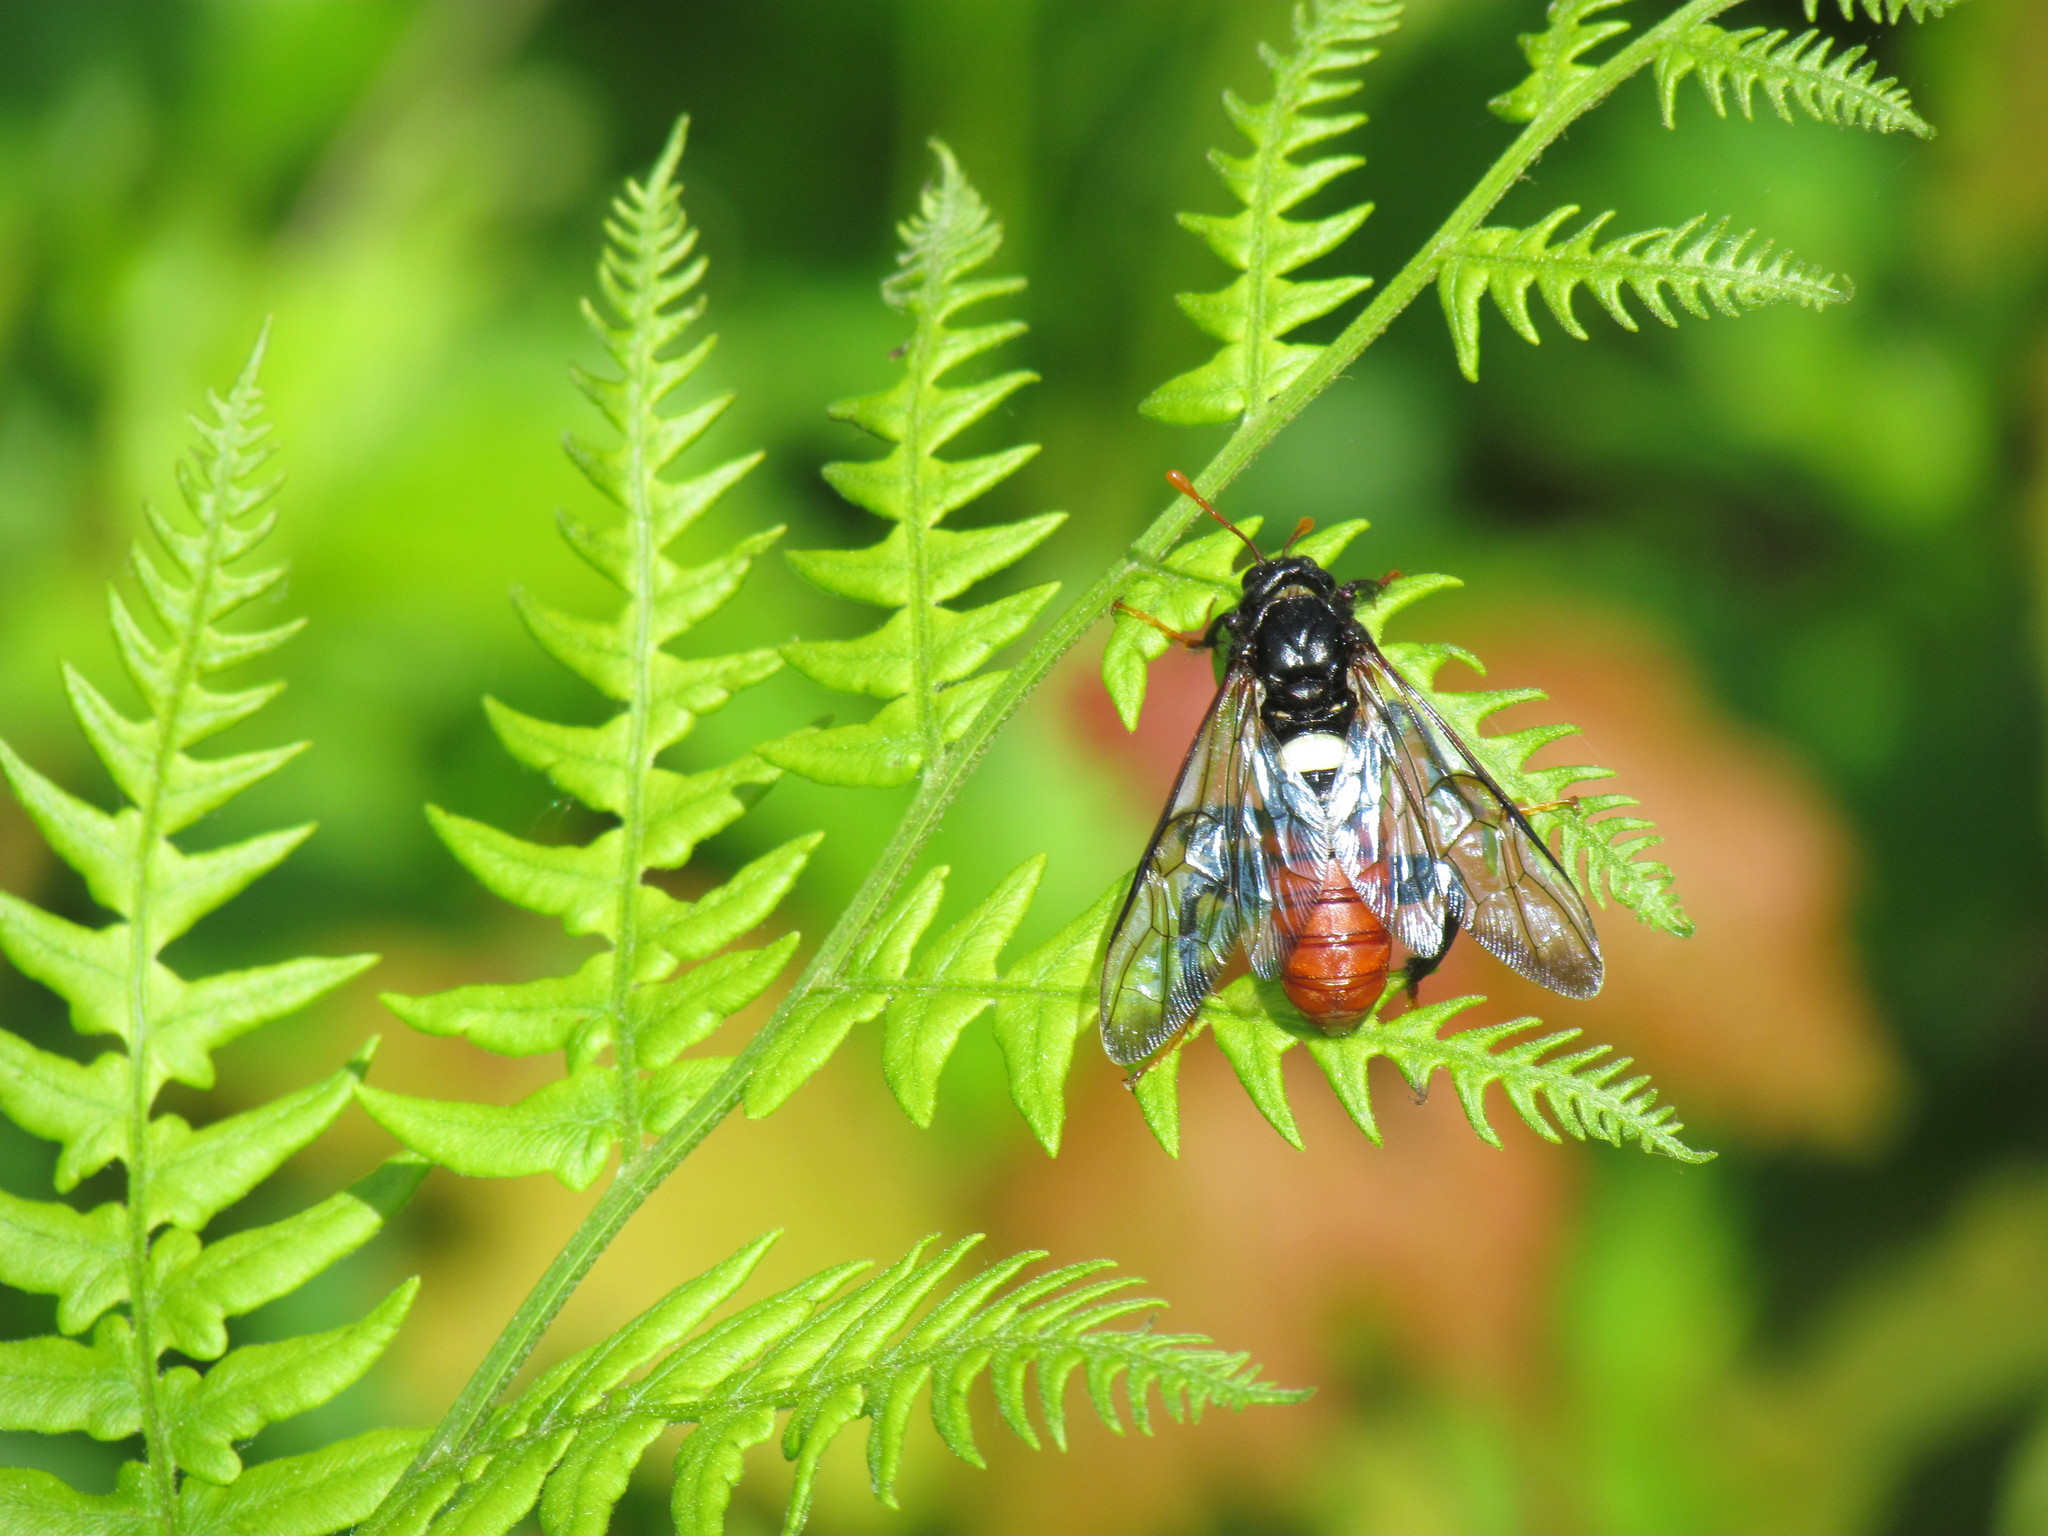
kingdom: Animalia
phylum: Arthropoda
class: Insecta
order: Hymenoptera
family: Cimbicidae
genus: Cimbex
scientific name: Cimbex americana
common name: Elm sawfly
